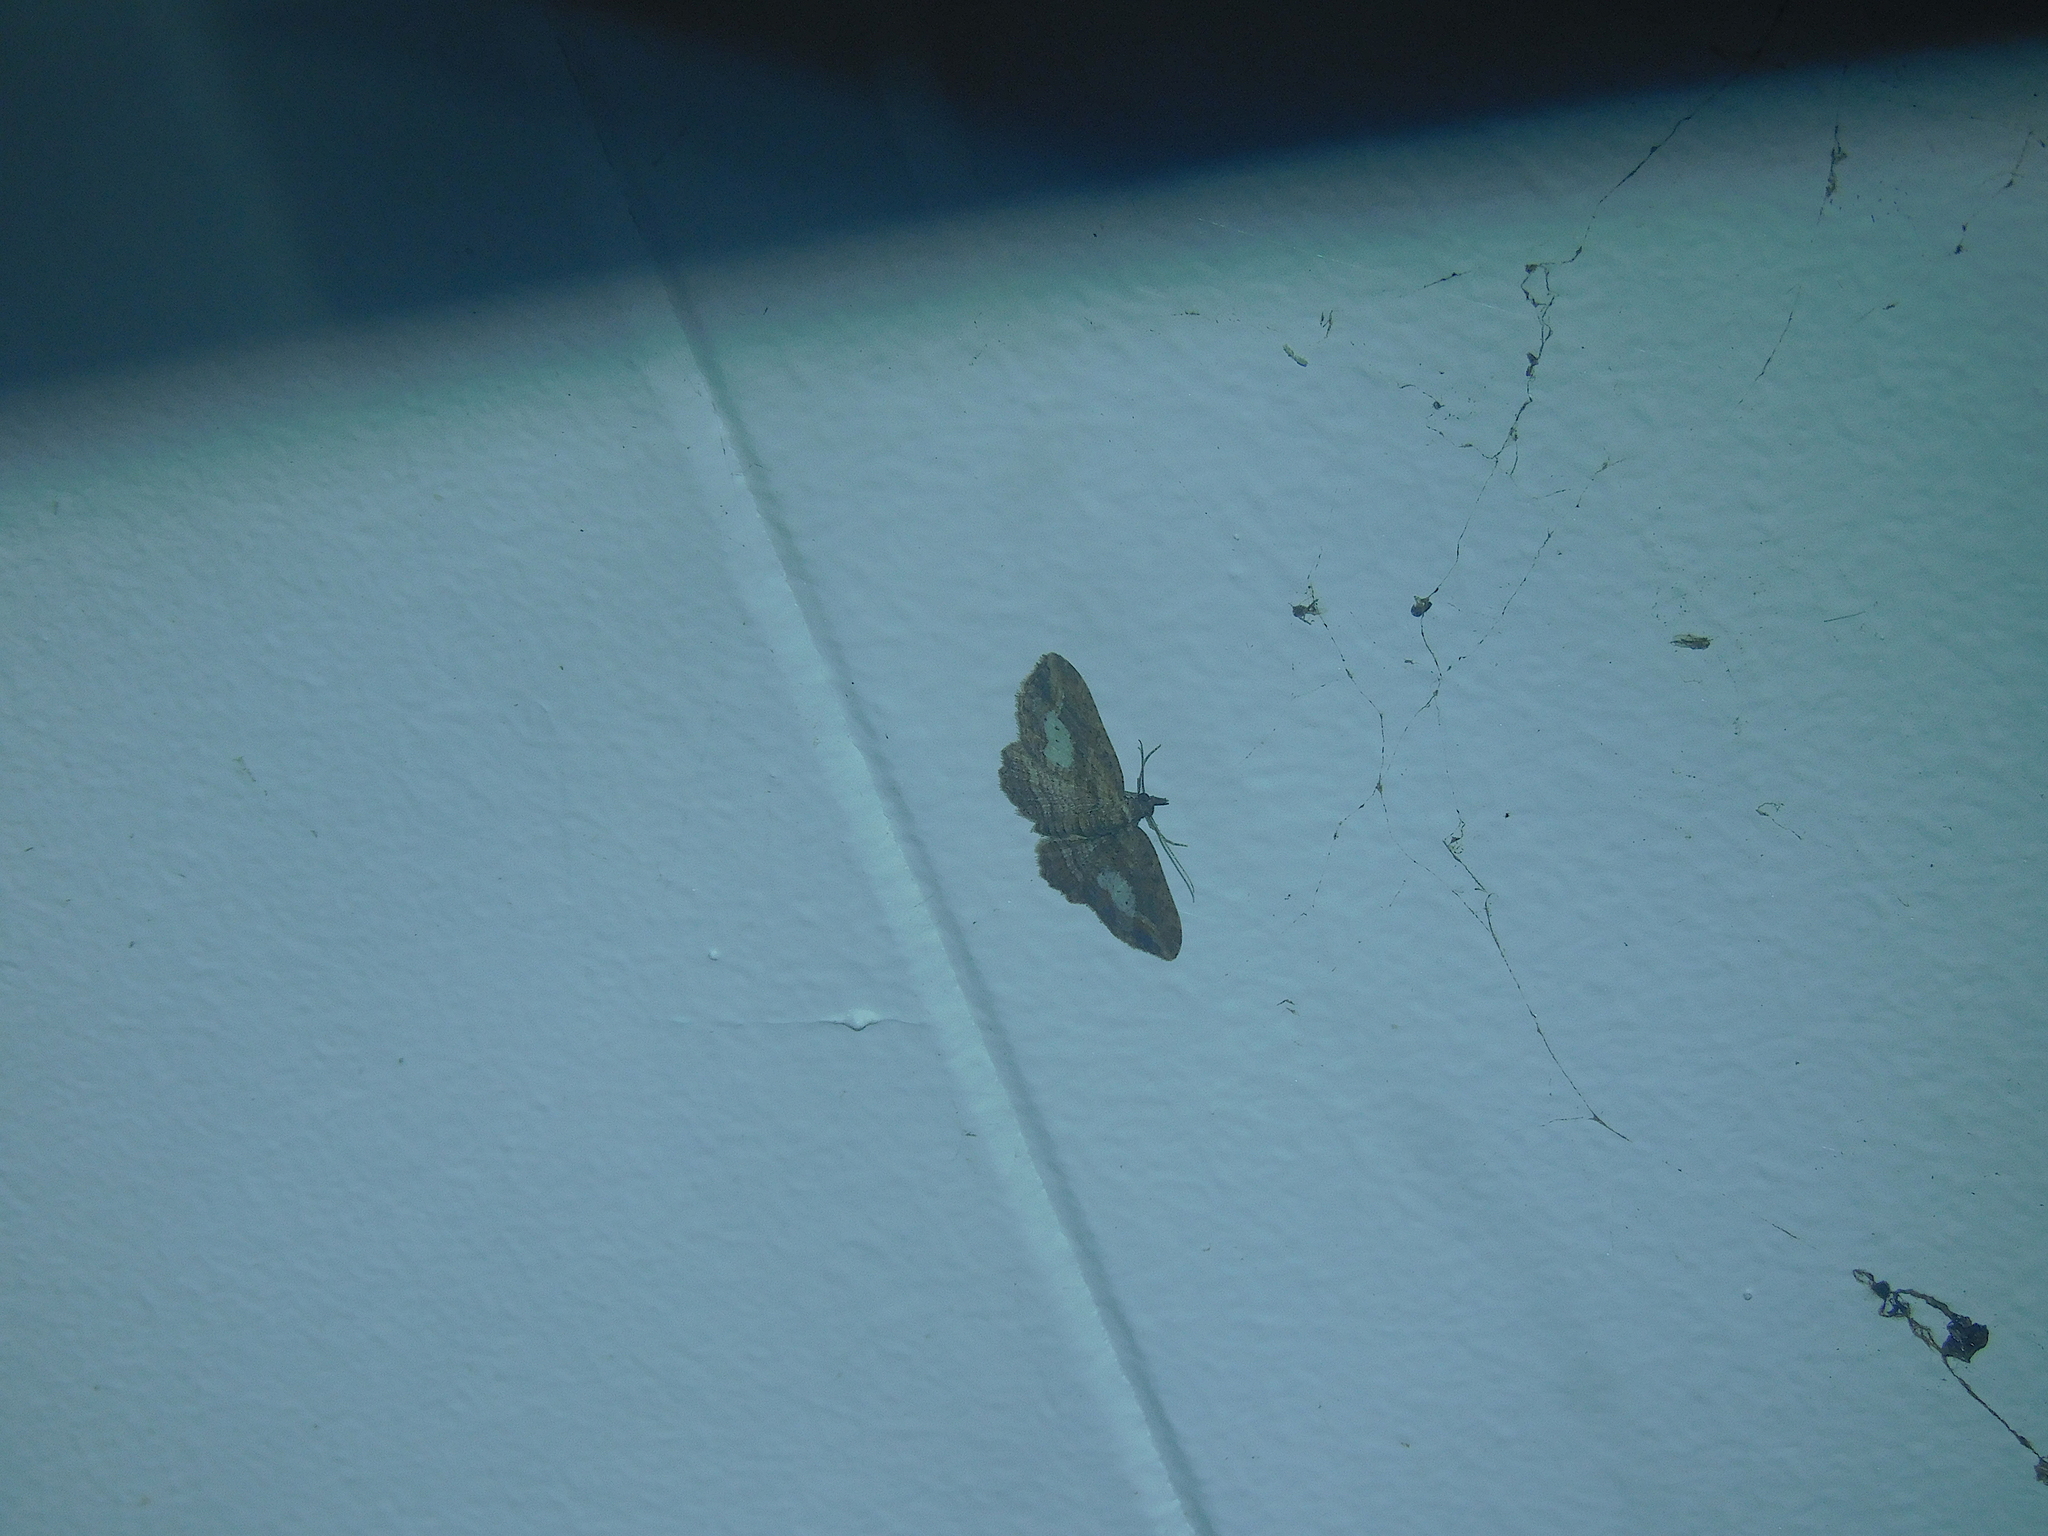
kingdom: Animalia
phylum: Arthropoda
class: Insecta
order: Lepidoptera
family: Geometridae
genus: Chloroclystis
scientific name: Chloroclystis filata
